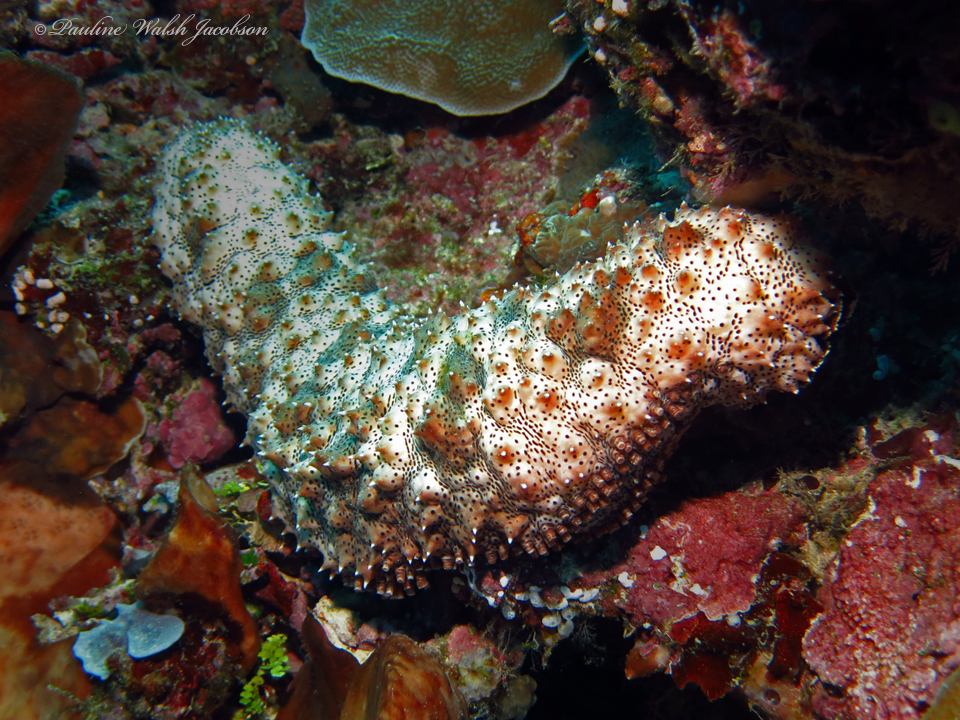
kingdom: Animalia
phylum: Echinodermata
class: Holothuroidea
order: Holothuriida
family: Holothuriidae
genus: Pearsonothuria
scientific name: Pearsonothuria graeffei
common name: Blackspotted sea cucumber
